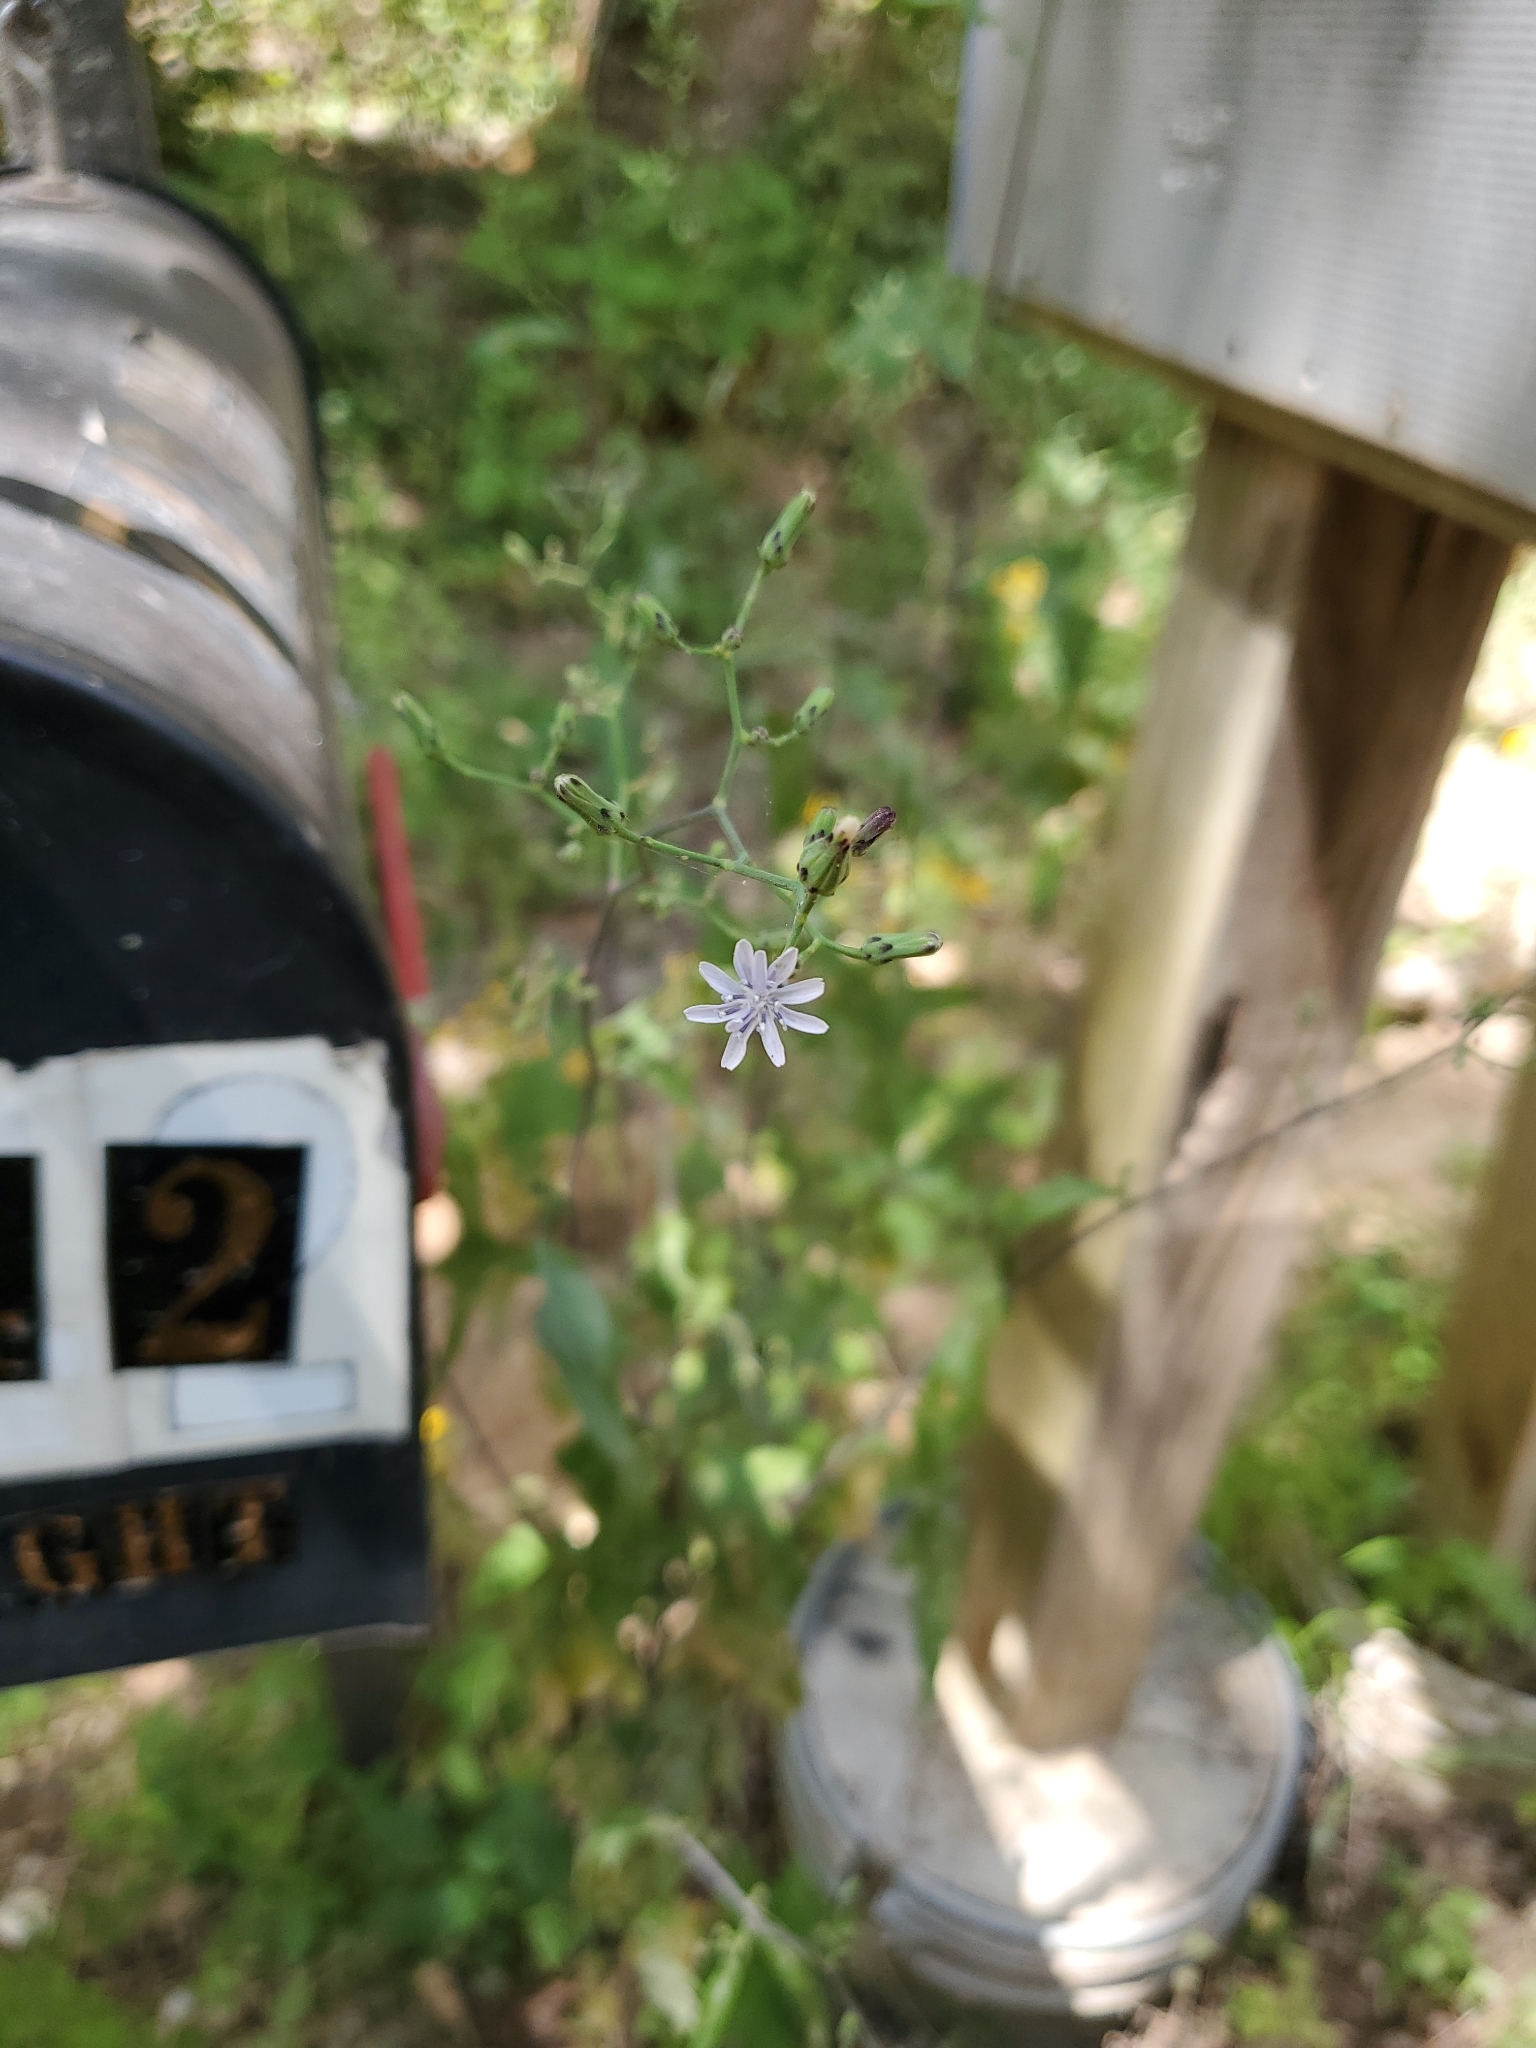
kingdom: Plantae
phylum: Tracheophyta
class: Magnoliopsida
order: Asterales
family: Asteraceae
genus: Lactuca
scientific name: Lactuca floridana
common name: Woodland lettuce
